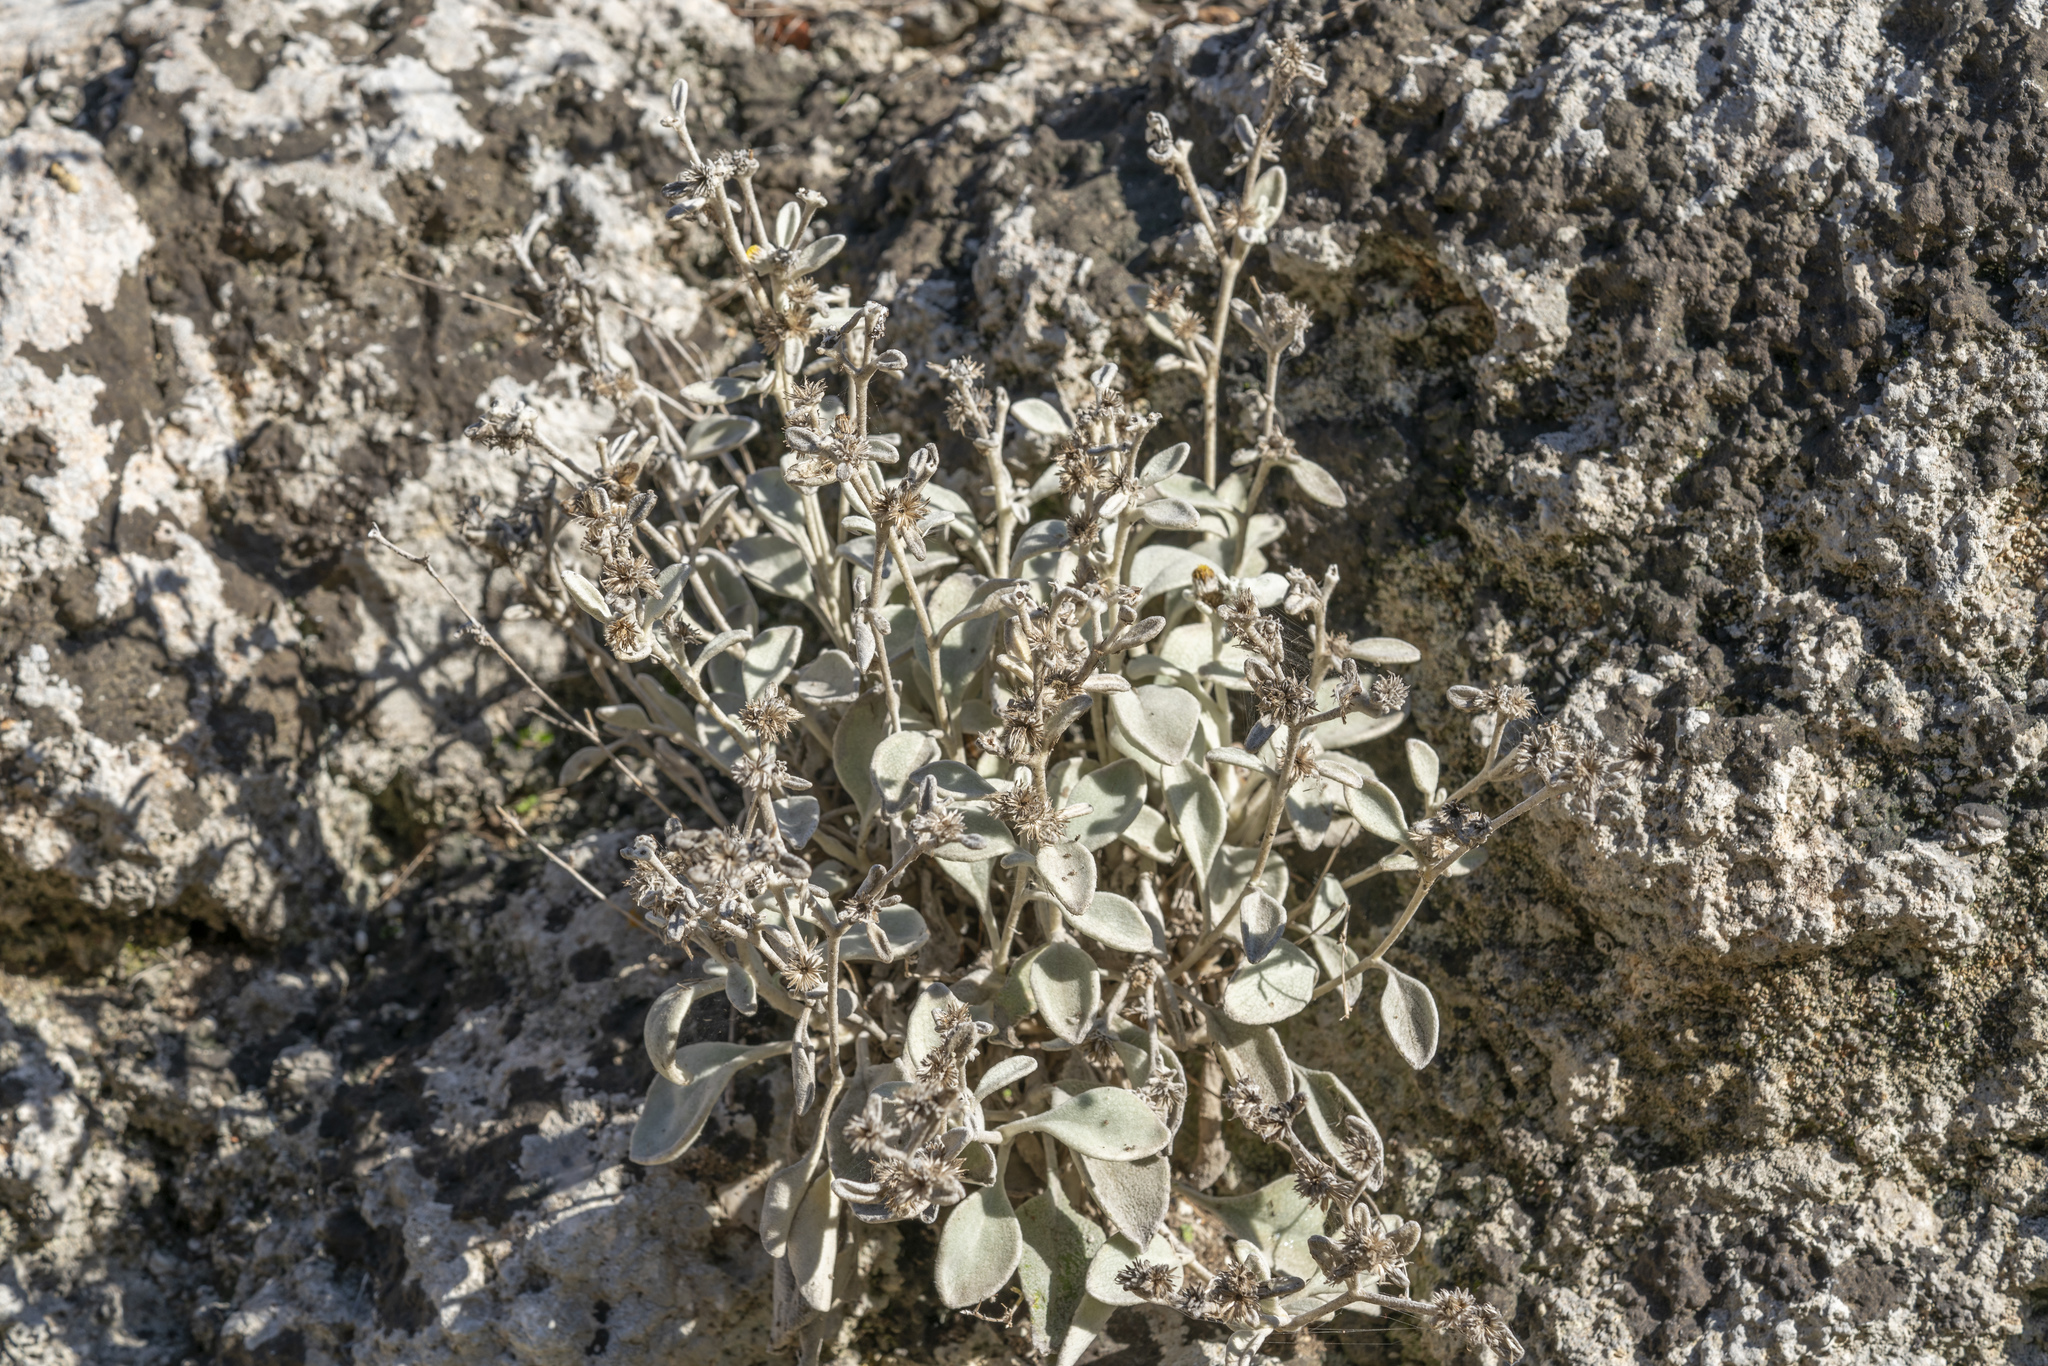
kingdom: Plantae
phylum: Tracheophyta
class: Magnoliopsida
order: Asterales
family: Asteraceae
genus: Pentanema
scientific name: Pentanema verbascifolium
